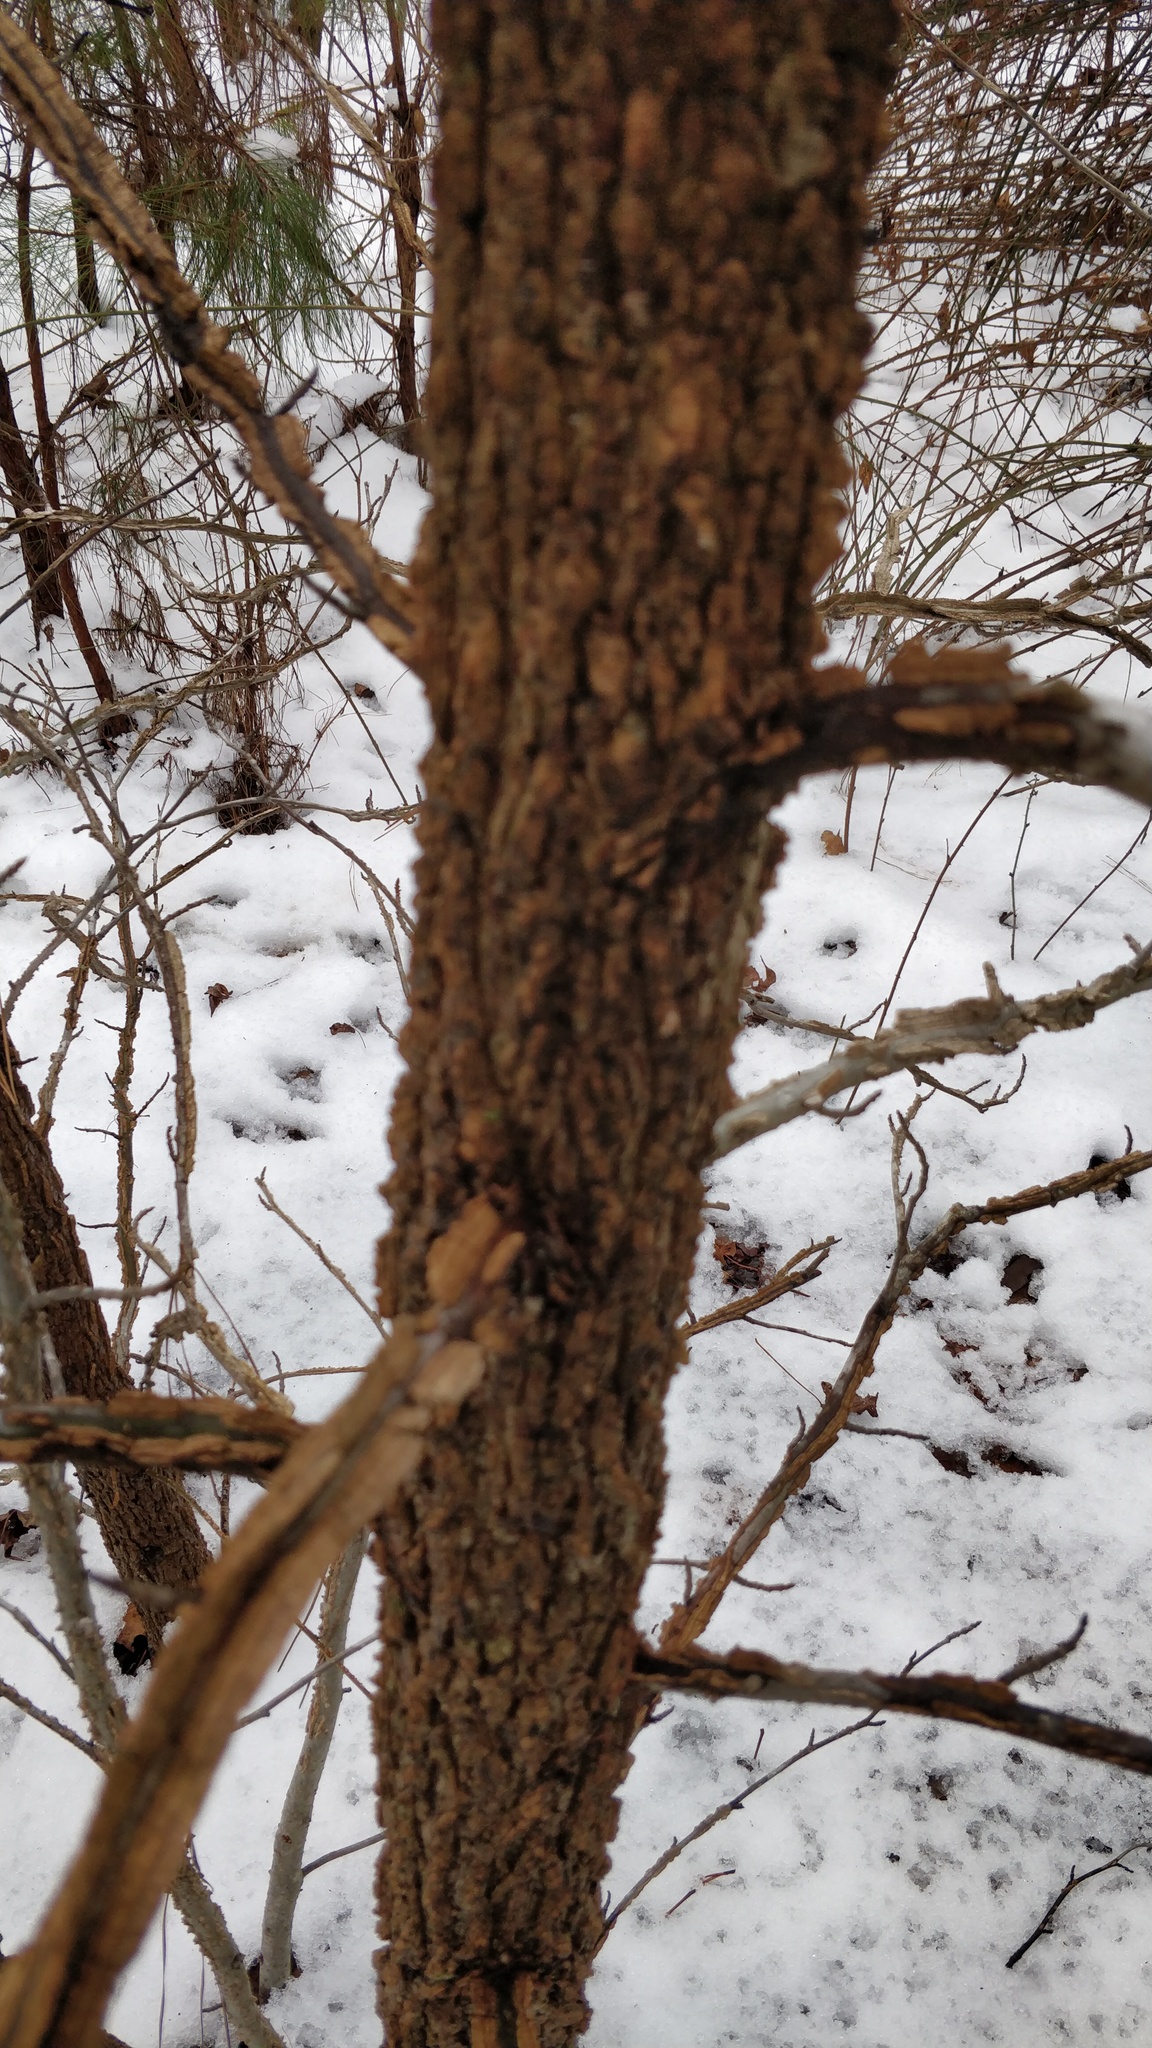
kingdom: Plantae
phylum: Tracheophyta
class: Magnoliopsida
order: Saxifragales
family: Altingiaceae
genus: Liquidambar
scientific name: Liquidambar styraciflua
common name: Sweet gum
